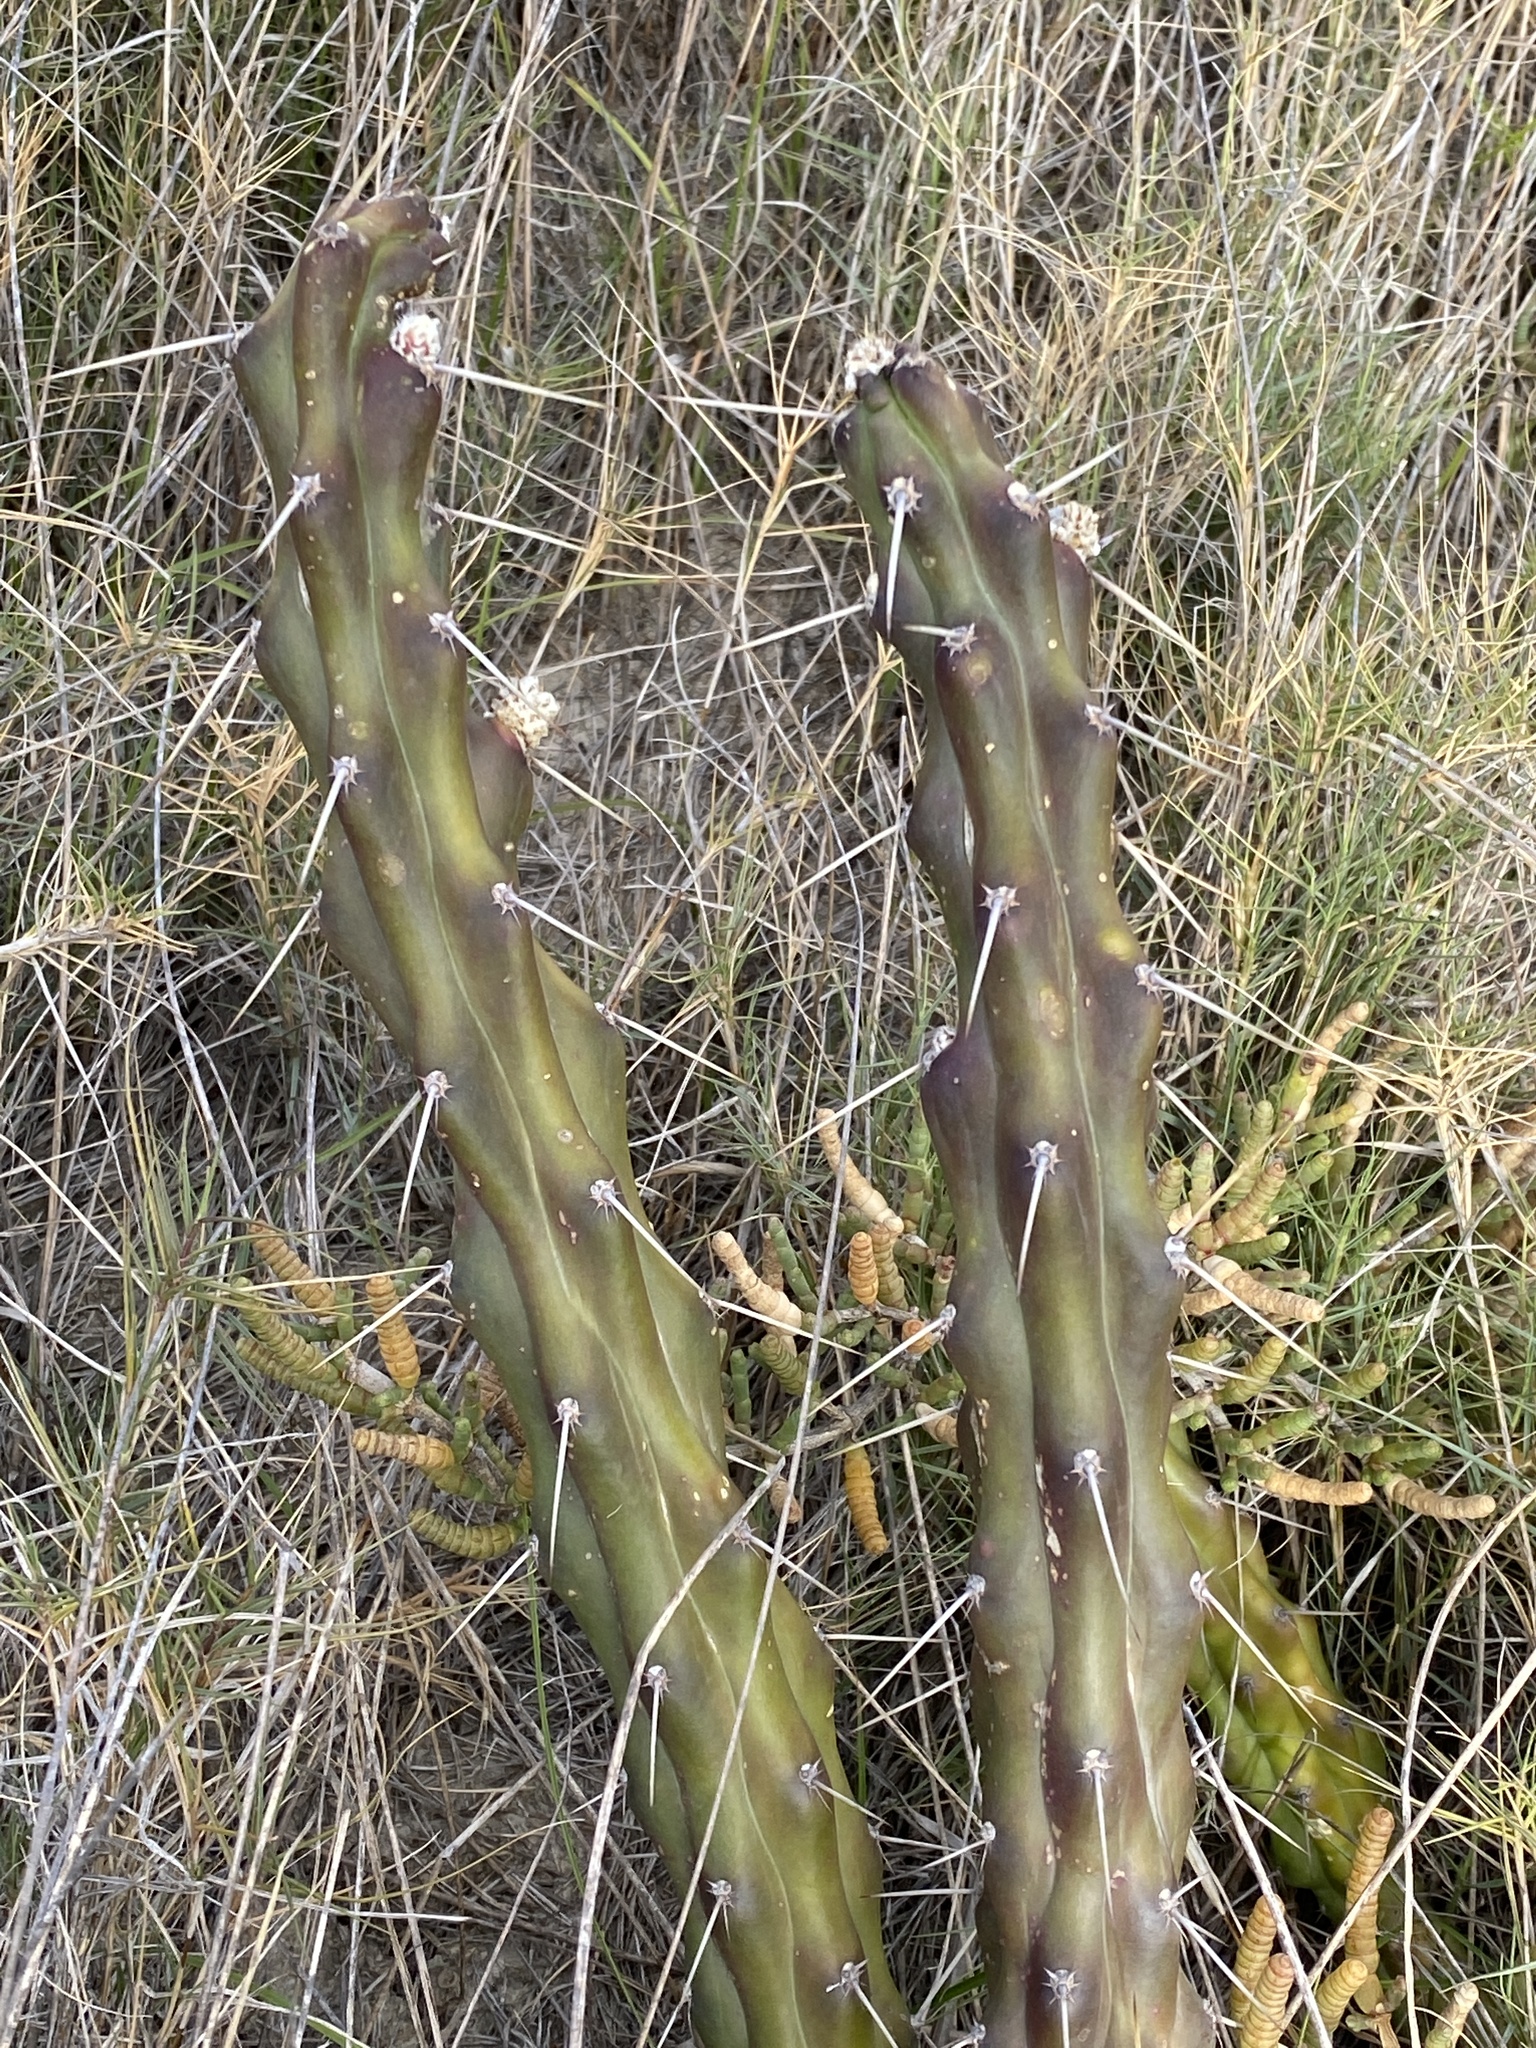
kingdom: Plantae
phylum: Tracheophyta
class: Magnoliopsida
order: Caryophyllales
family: Cactaceae
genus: Harrisia
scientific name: Harrisia martinii
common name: Moon cactus
